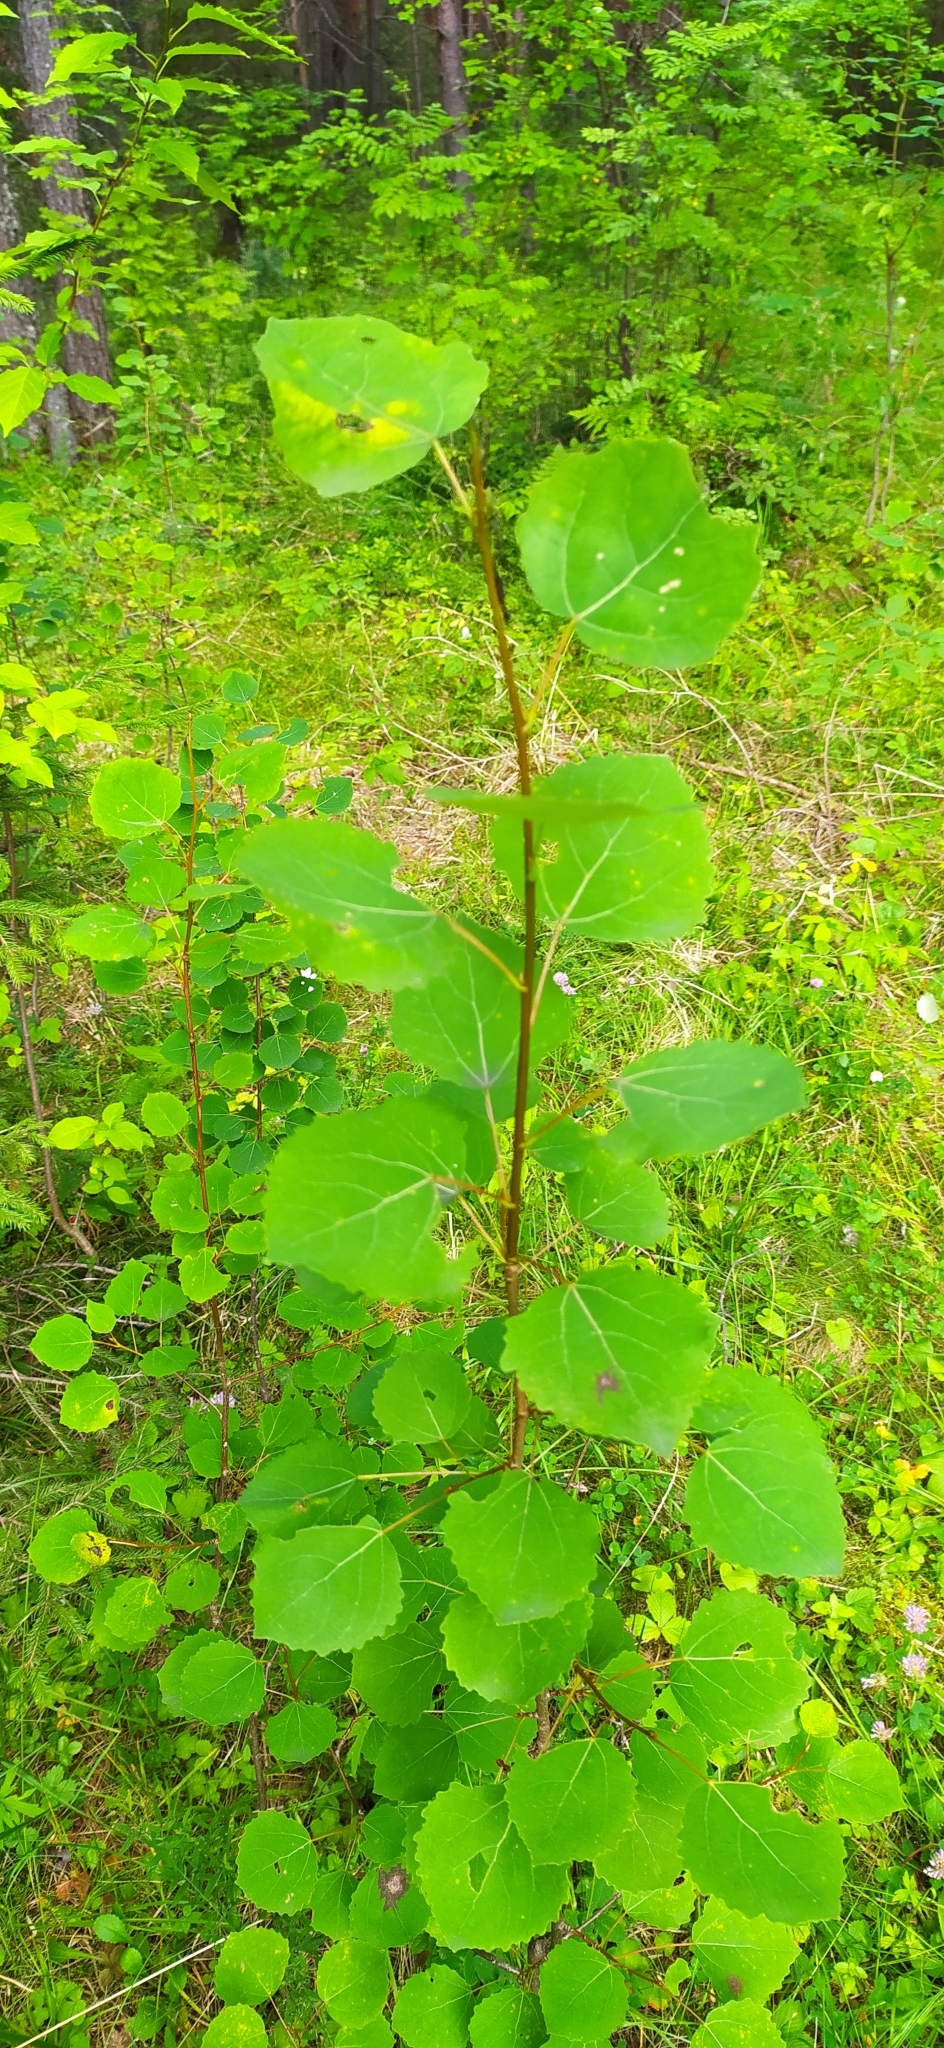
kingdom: Plantae
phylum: Tracheophyta
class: Magnoliopsida
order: Malpighiales
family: Salicaceae
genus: Populus
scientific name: Populus tremula
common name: European aspen
